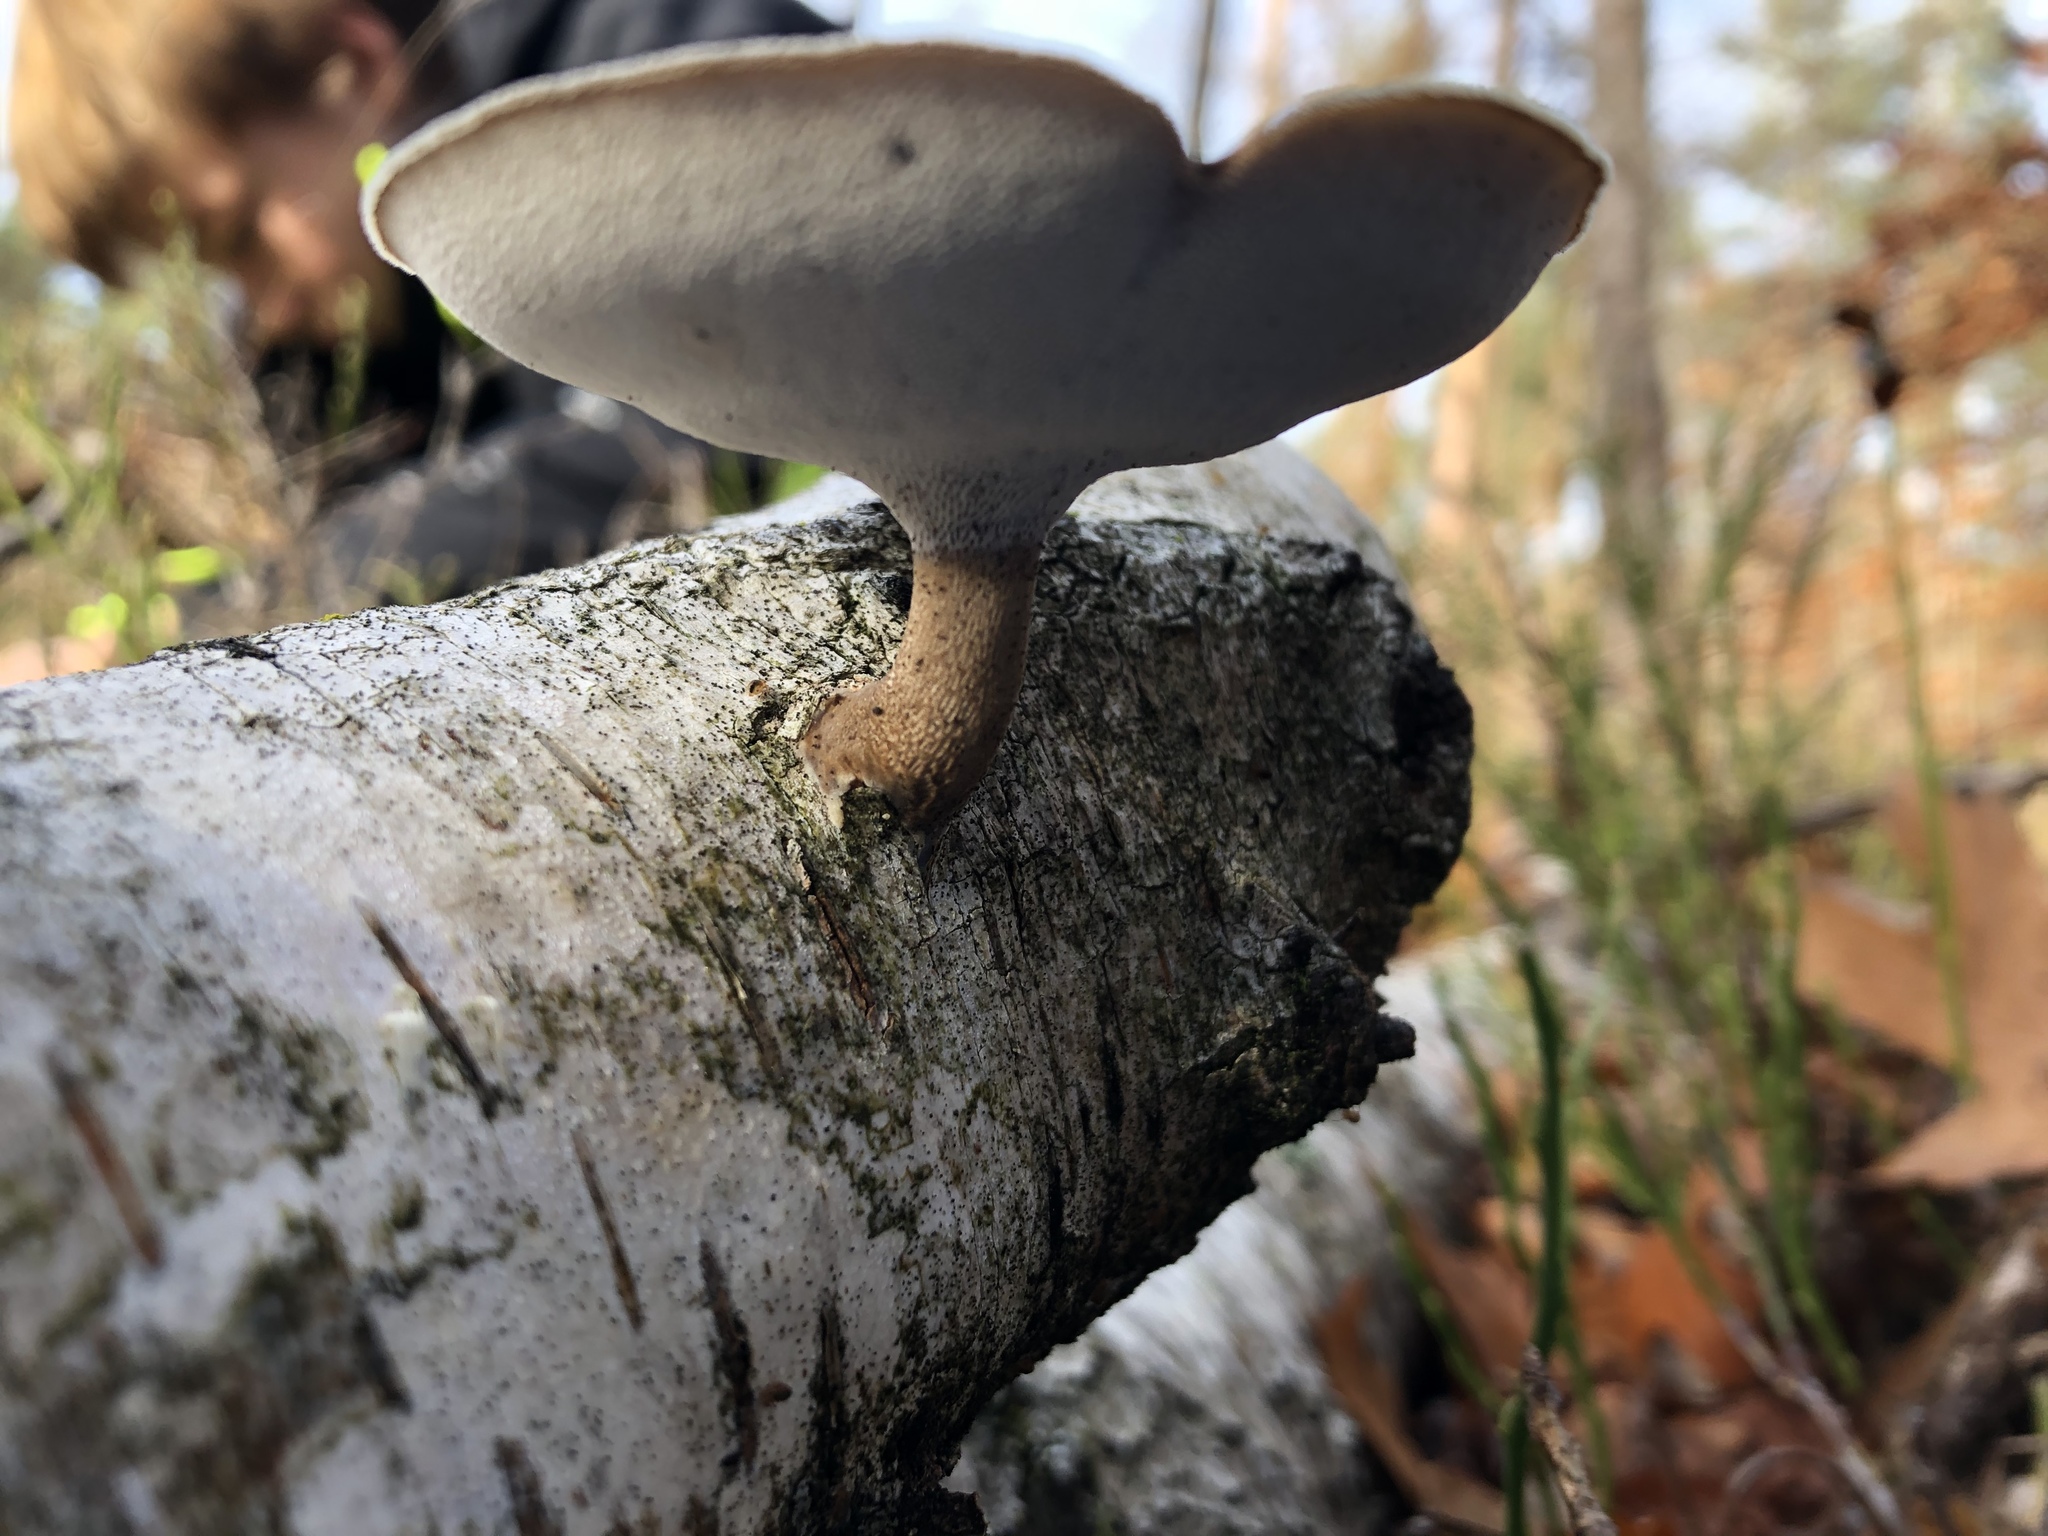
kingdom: Fungi
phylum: Basidiomycota
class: Agaricomycetes
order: Polyporales
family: Polyporaceae
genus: Lentinus
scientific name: Lentinus brumalis
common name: Winter polypore
